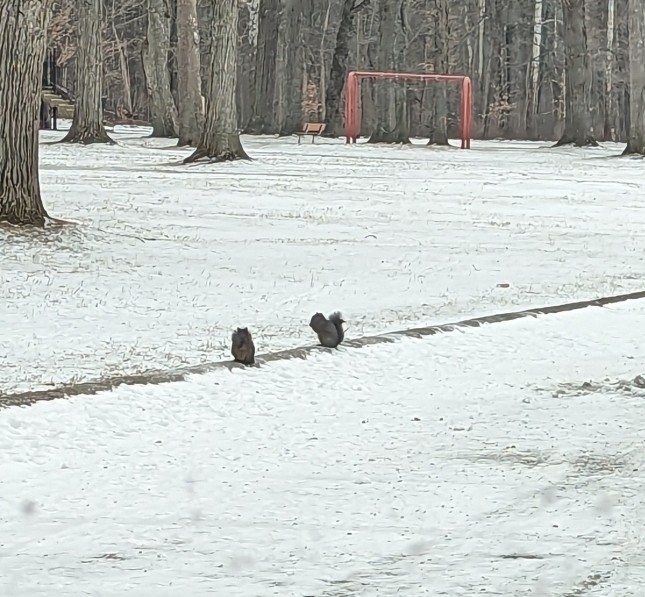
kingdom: Animalia
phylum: Chordata
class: Mammalia
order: Rodentia
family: Sciuridae
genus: Sciurus
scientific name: Sciurus carolinensis
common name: Eastern gray squirrel
